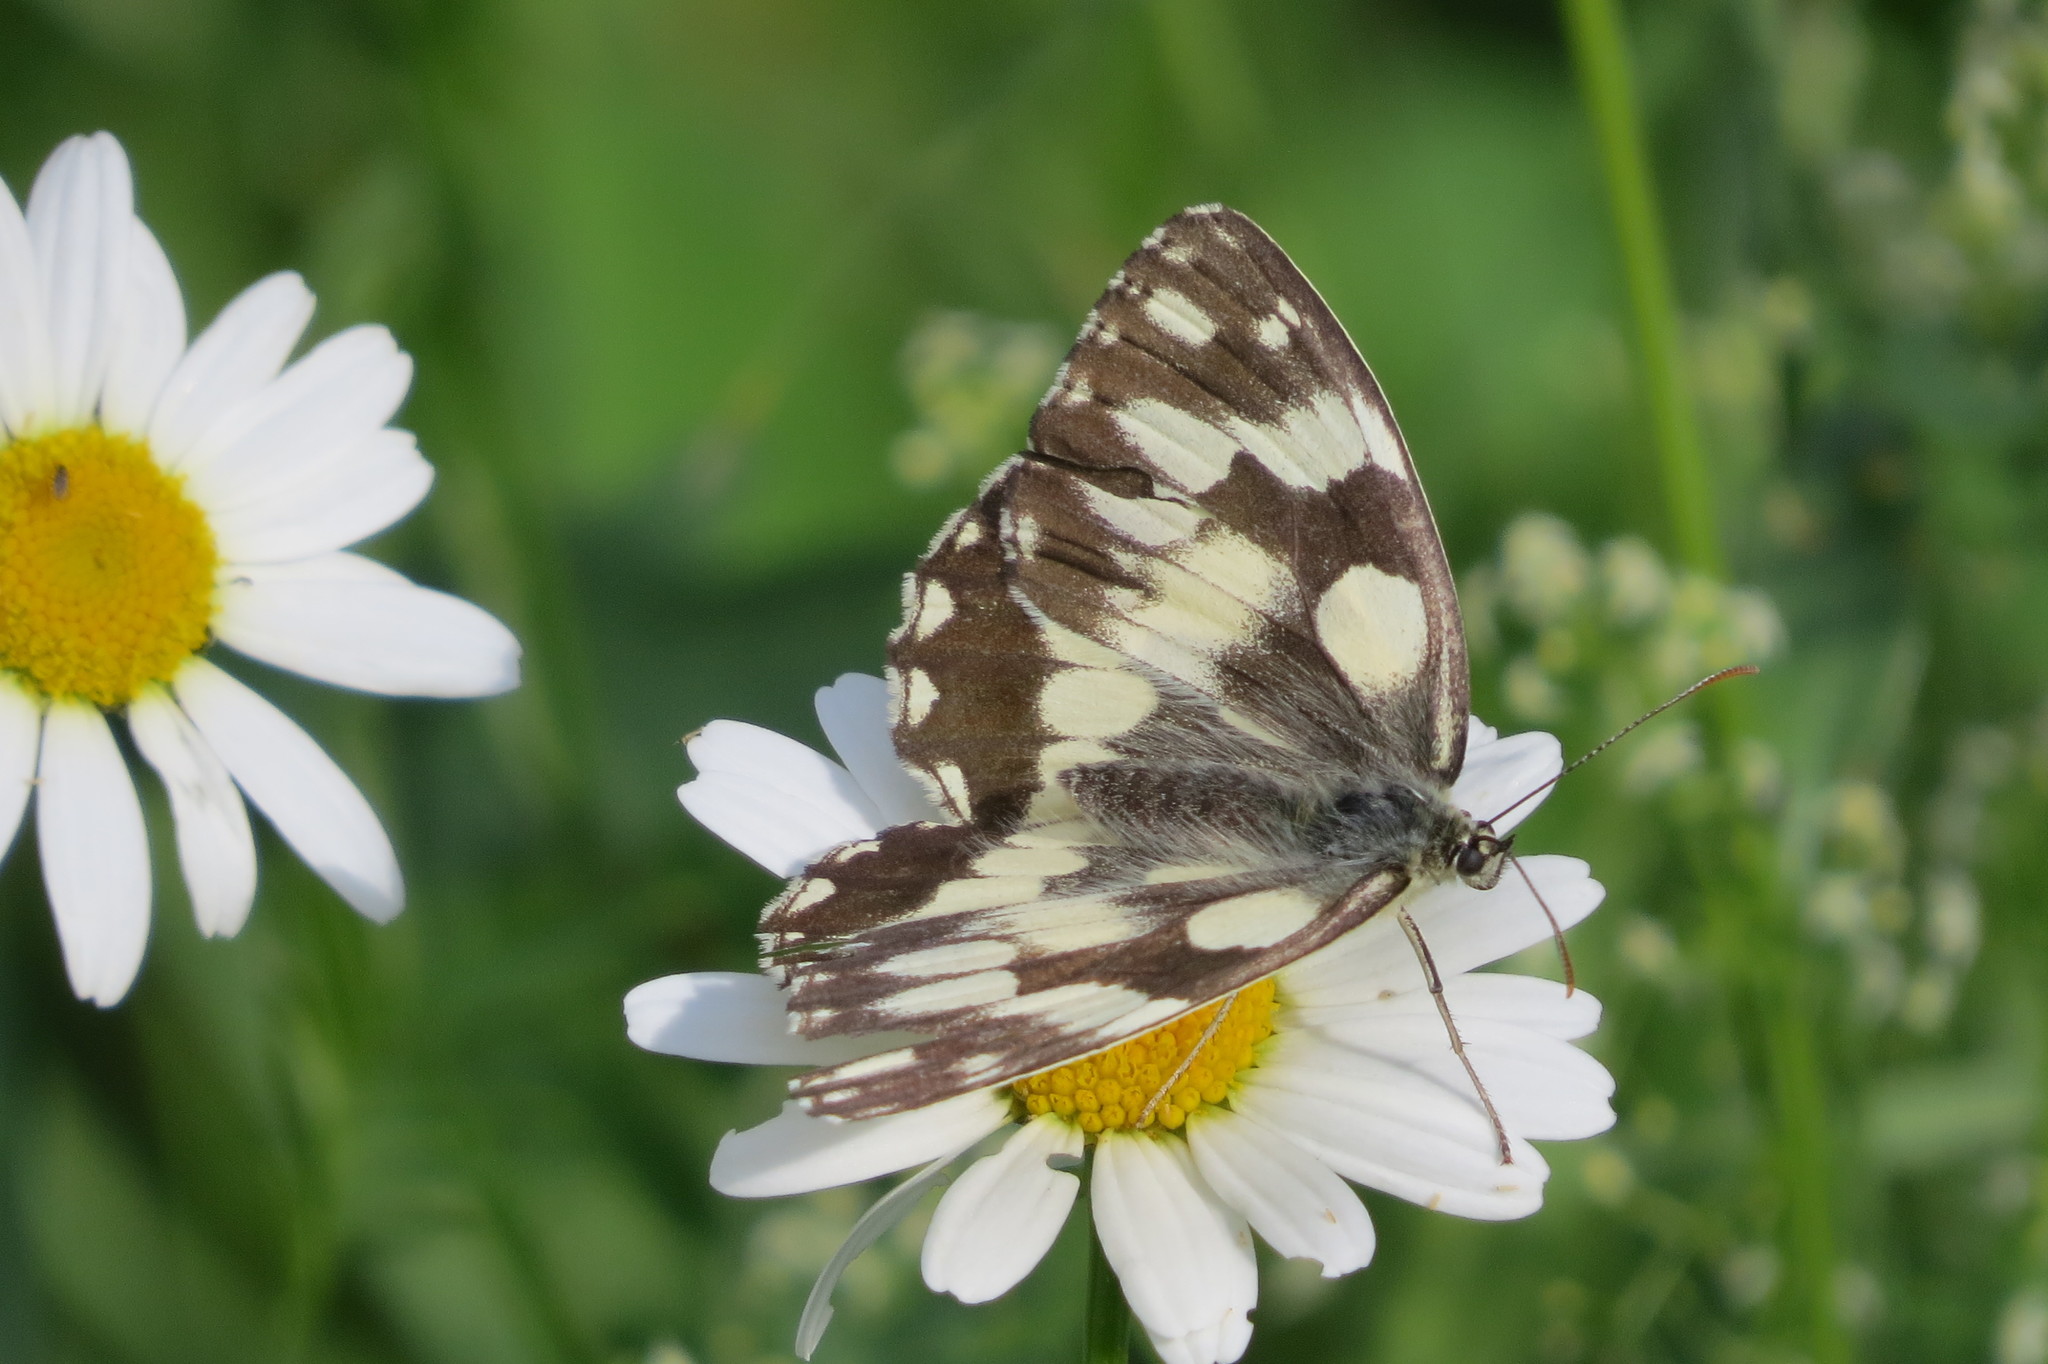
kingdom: Animalia
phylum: Arthropoda
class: Insecta
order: Lepidoptera
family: Nymphalidae
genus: Melanargia
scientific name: Melanargia galathea
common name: Marbled white
